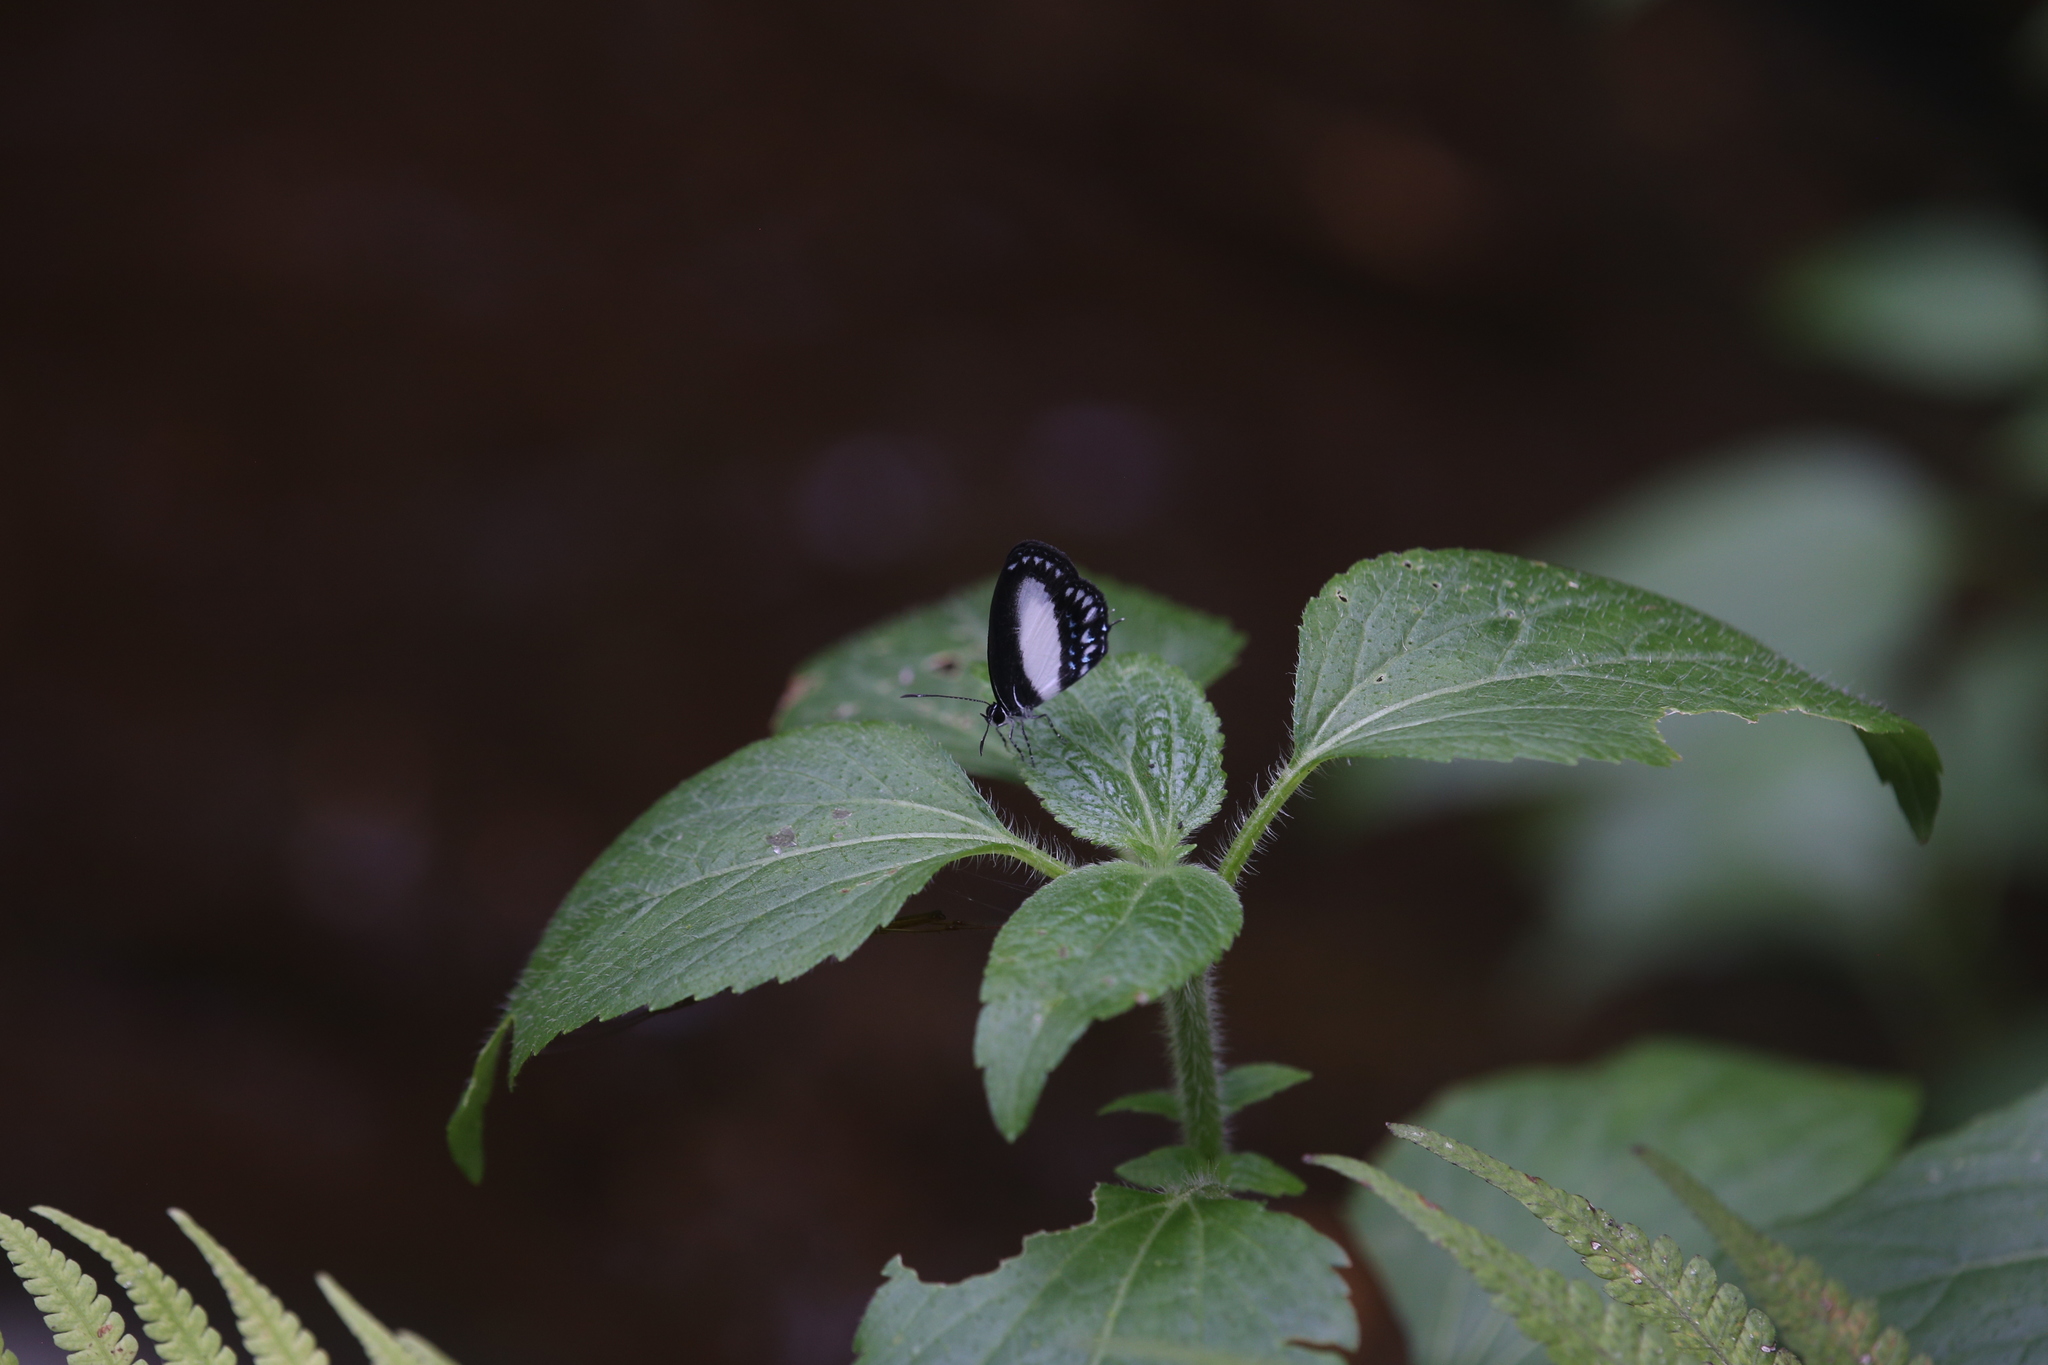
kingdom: Animalia
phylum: Arthropoda
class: Insecta
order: Lepidoptera
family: Lycaenidae
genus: Jamides
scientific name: Jamides aleuas
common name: White-banded cerulean
